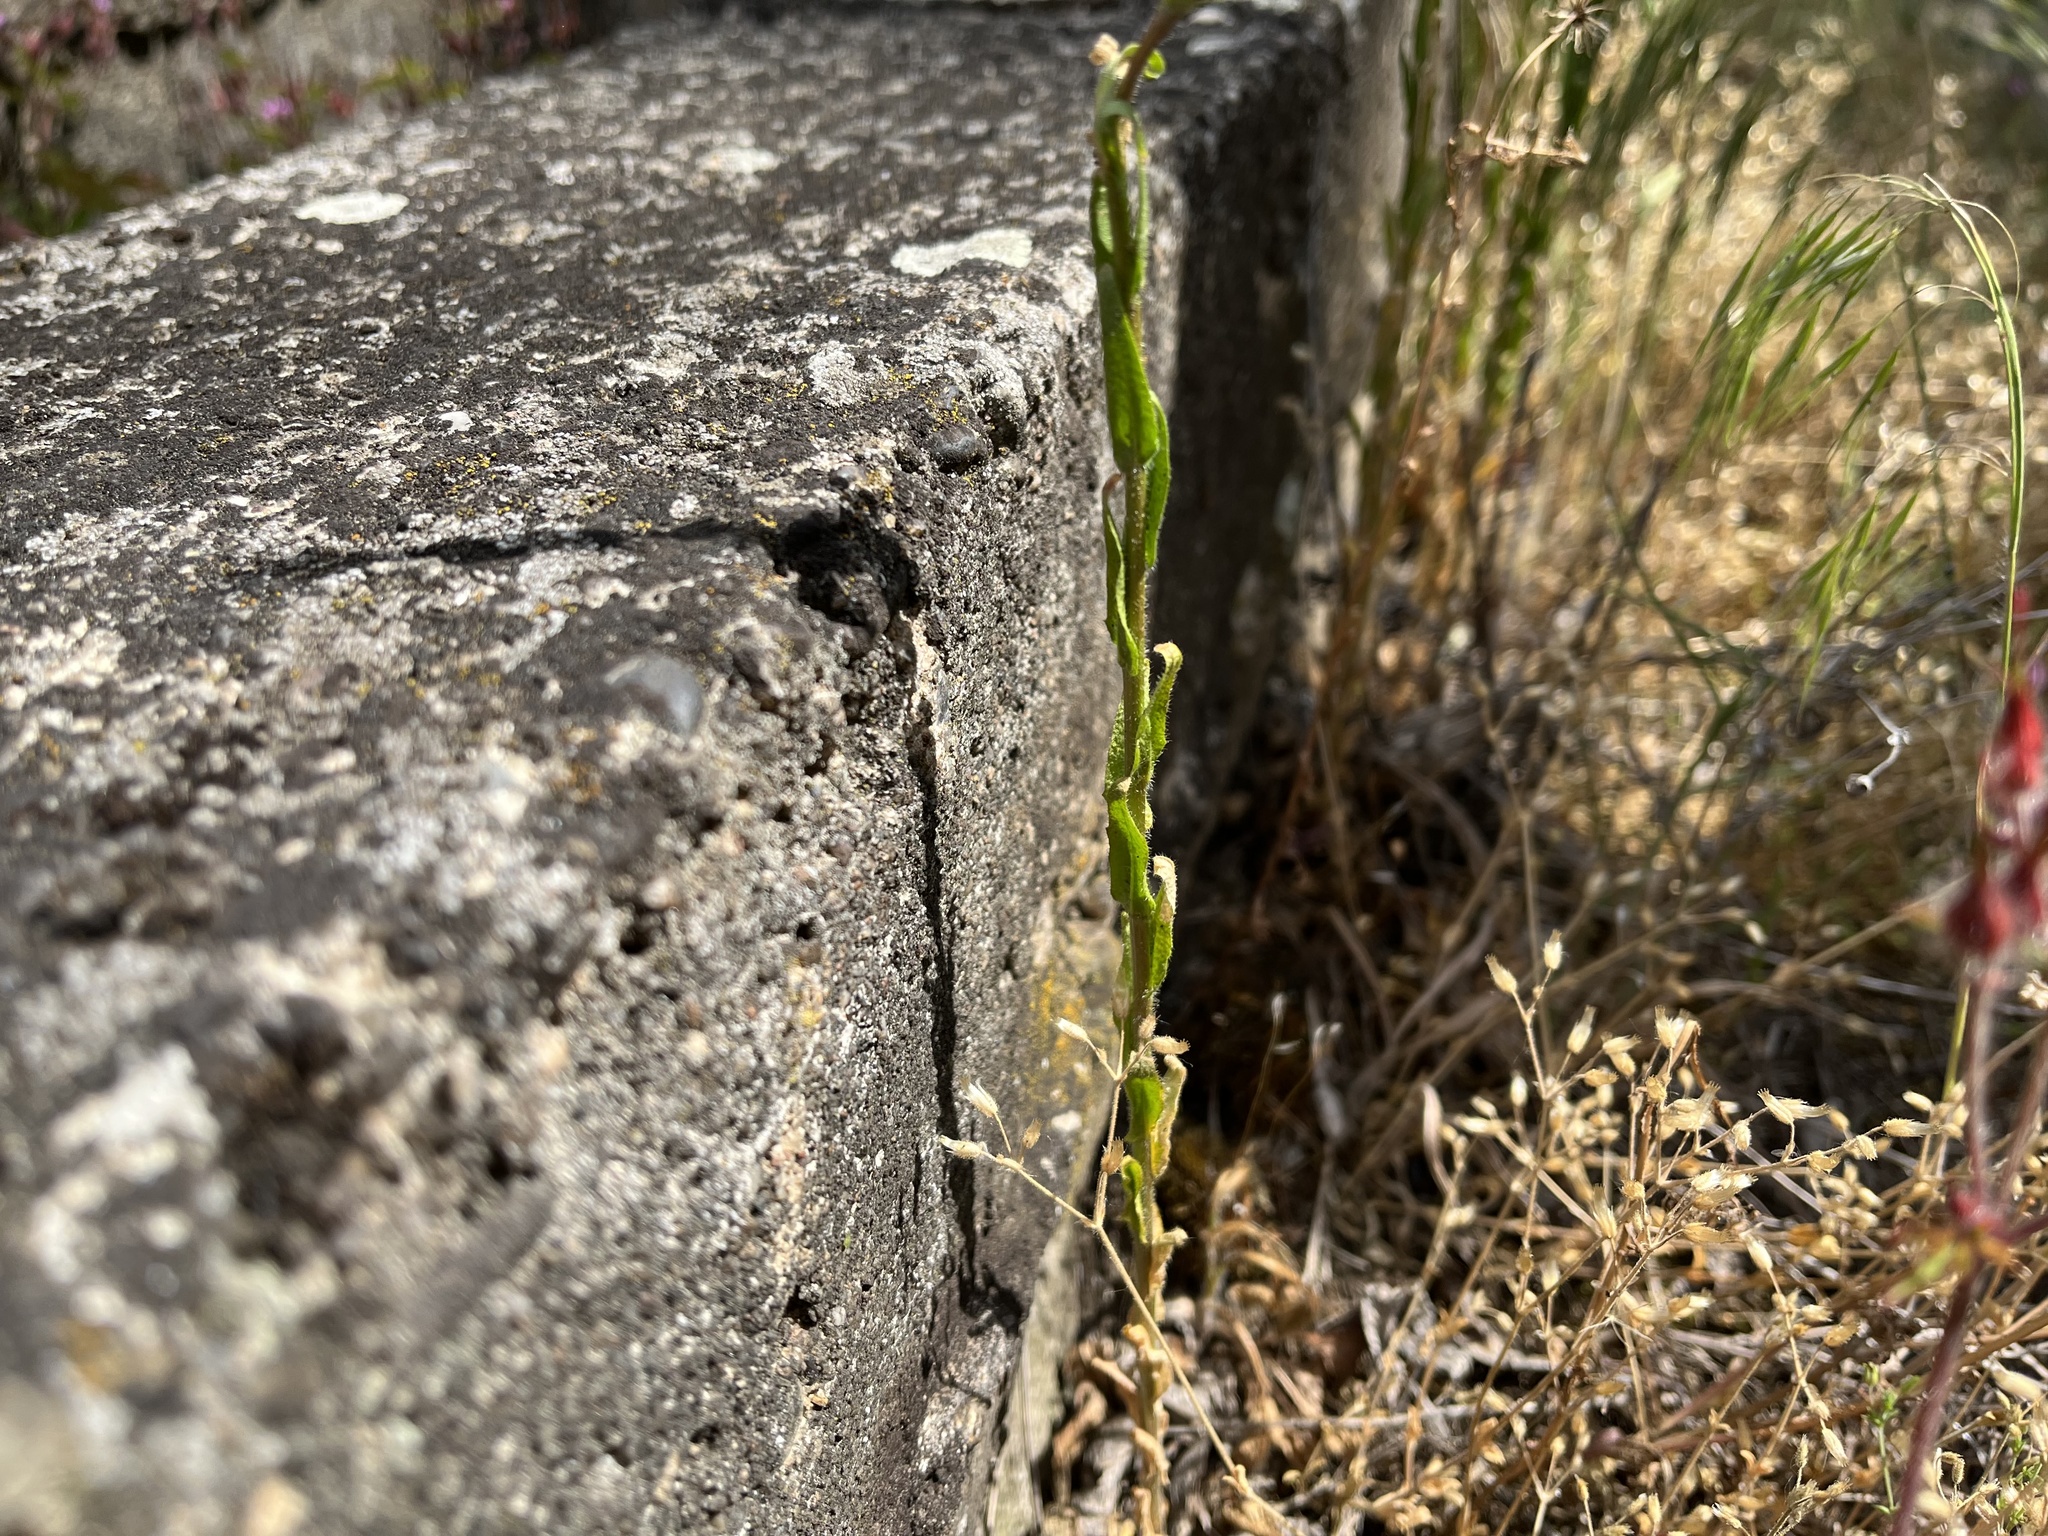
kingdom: Plantae
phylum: Tracheophyta
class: Magnoliopsida
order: Brassicales
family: Brassicaceae
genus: Arabis
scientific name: Arabis sagittata
